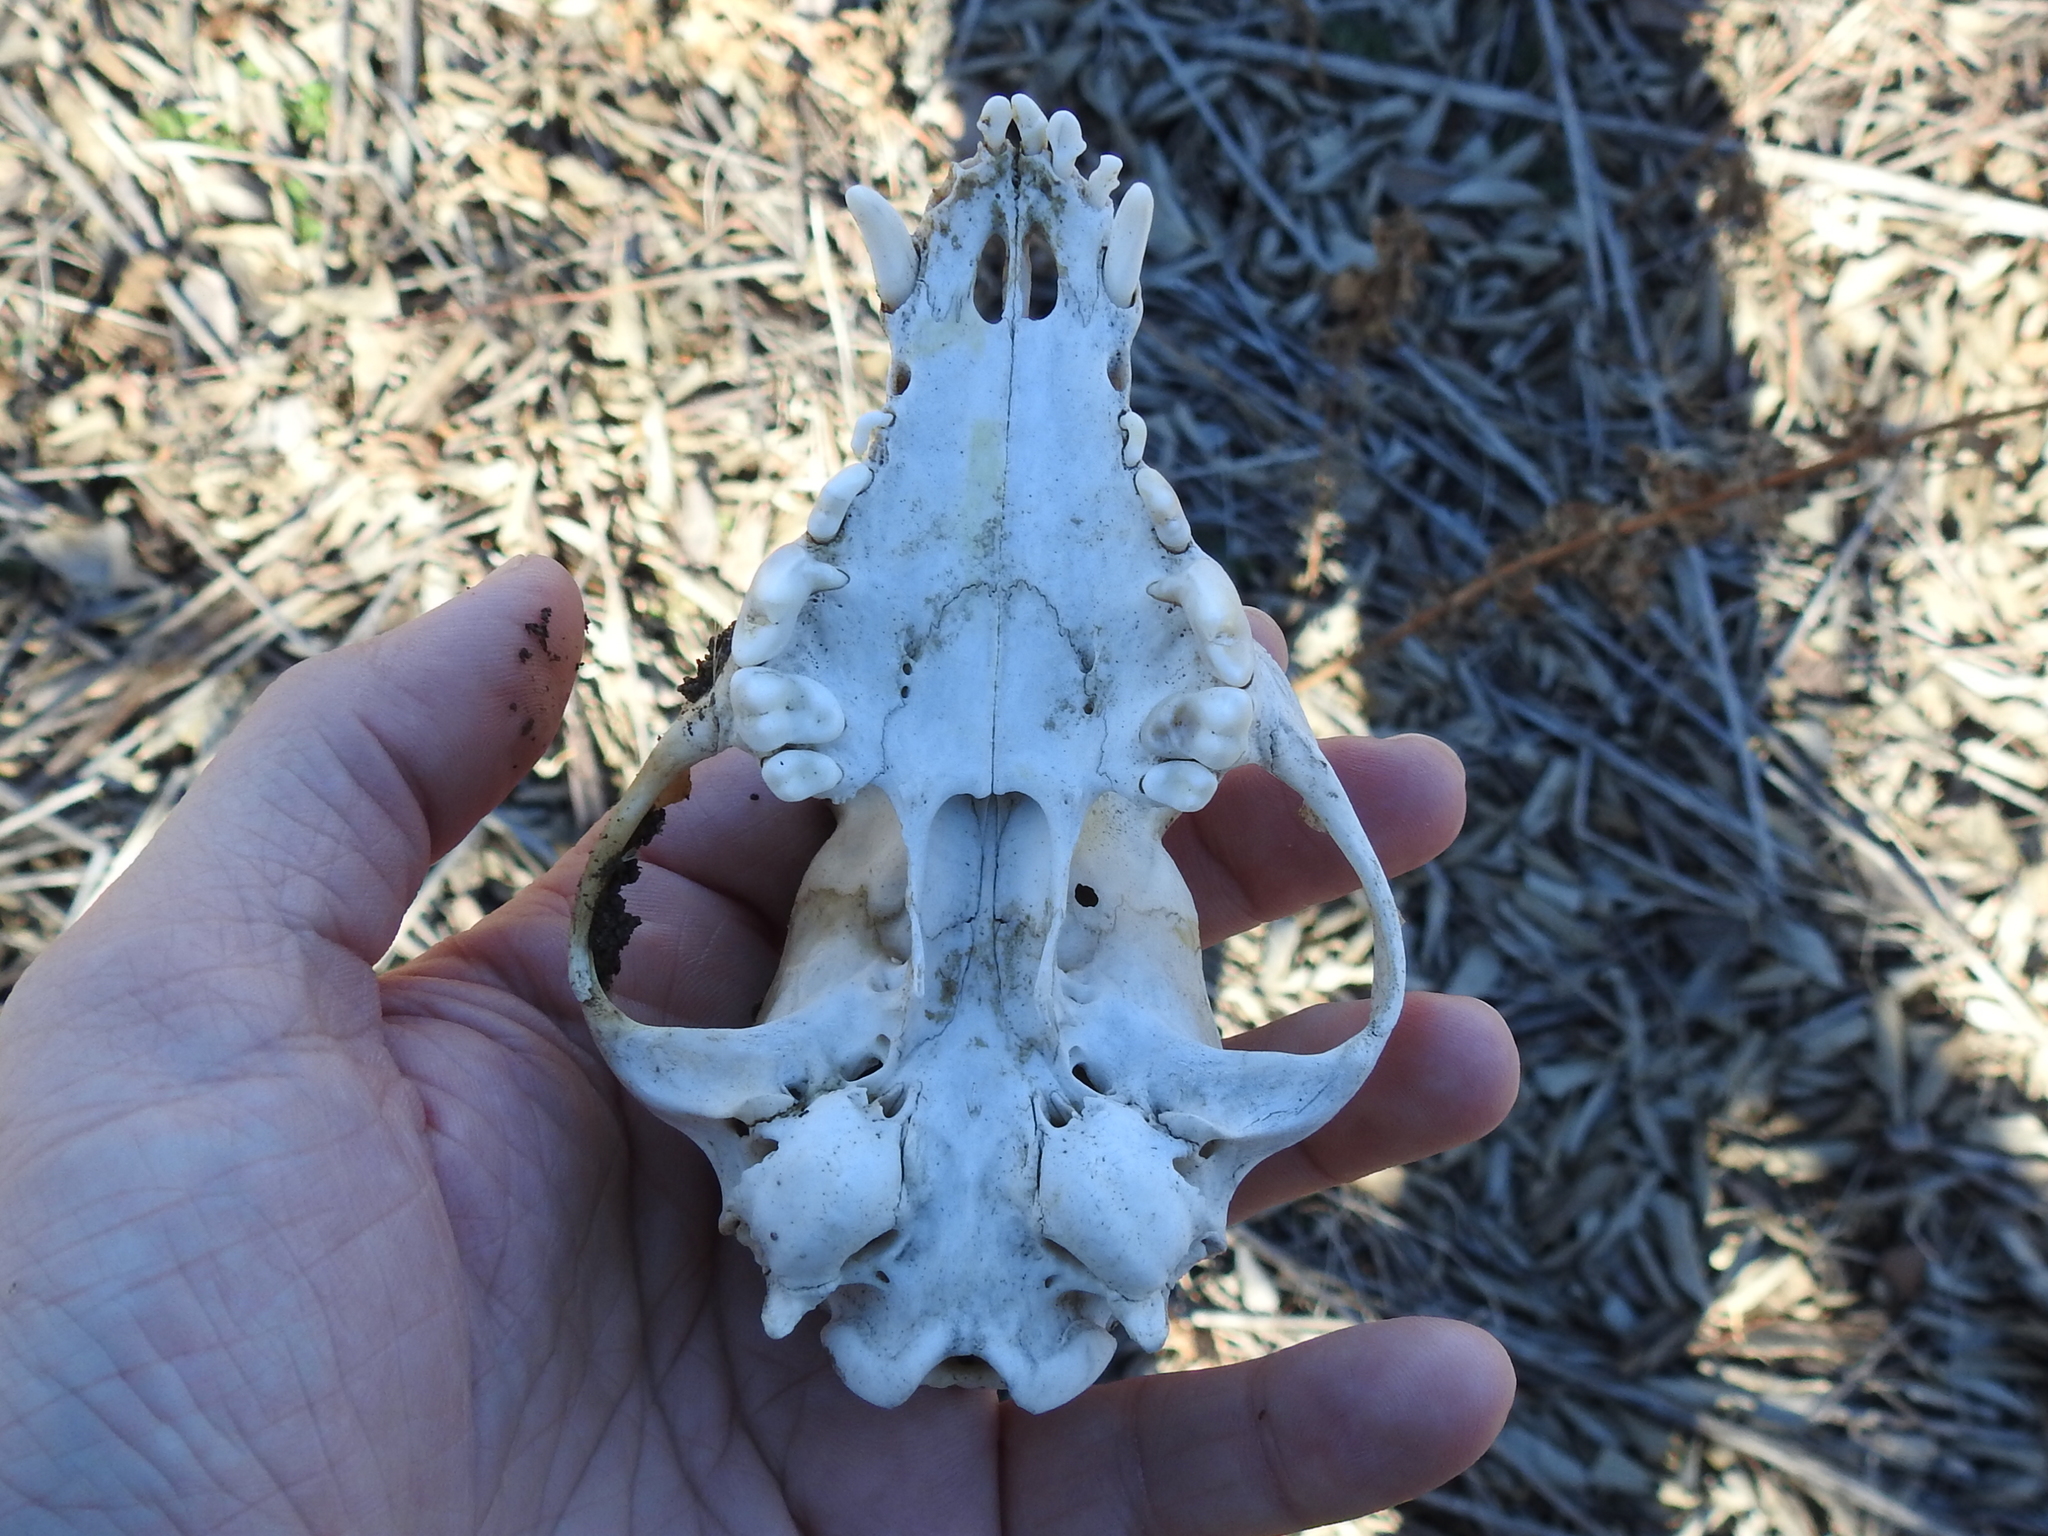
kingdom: Animalia
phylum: Chordata
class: Mammalia
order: Carnivora
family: Canidae
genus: Canis
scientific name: Canis lupus
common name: Gray wolf
